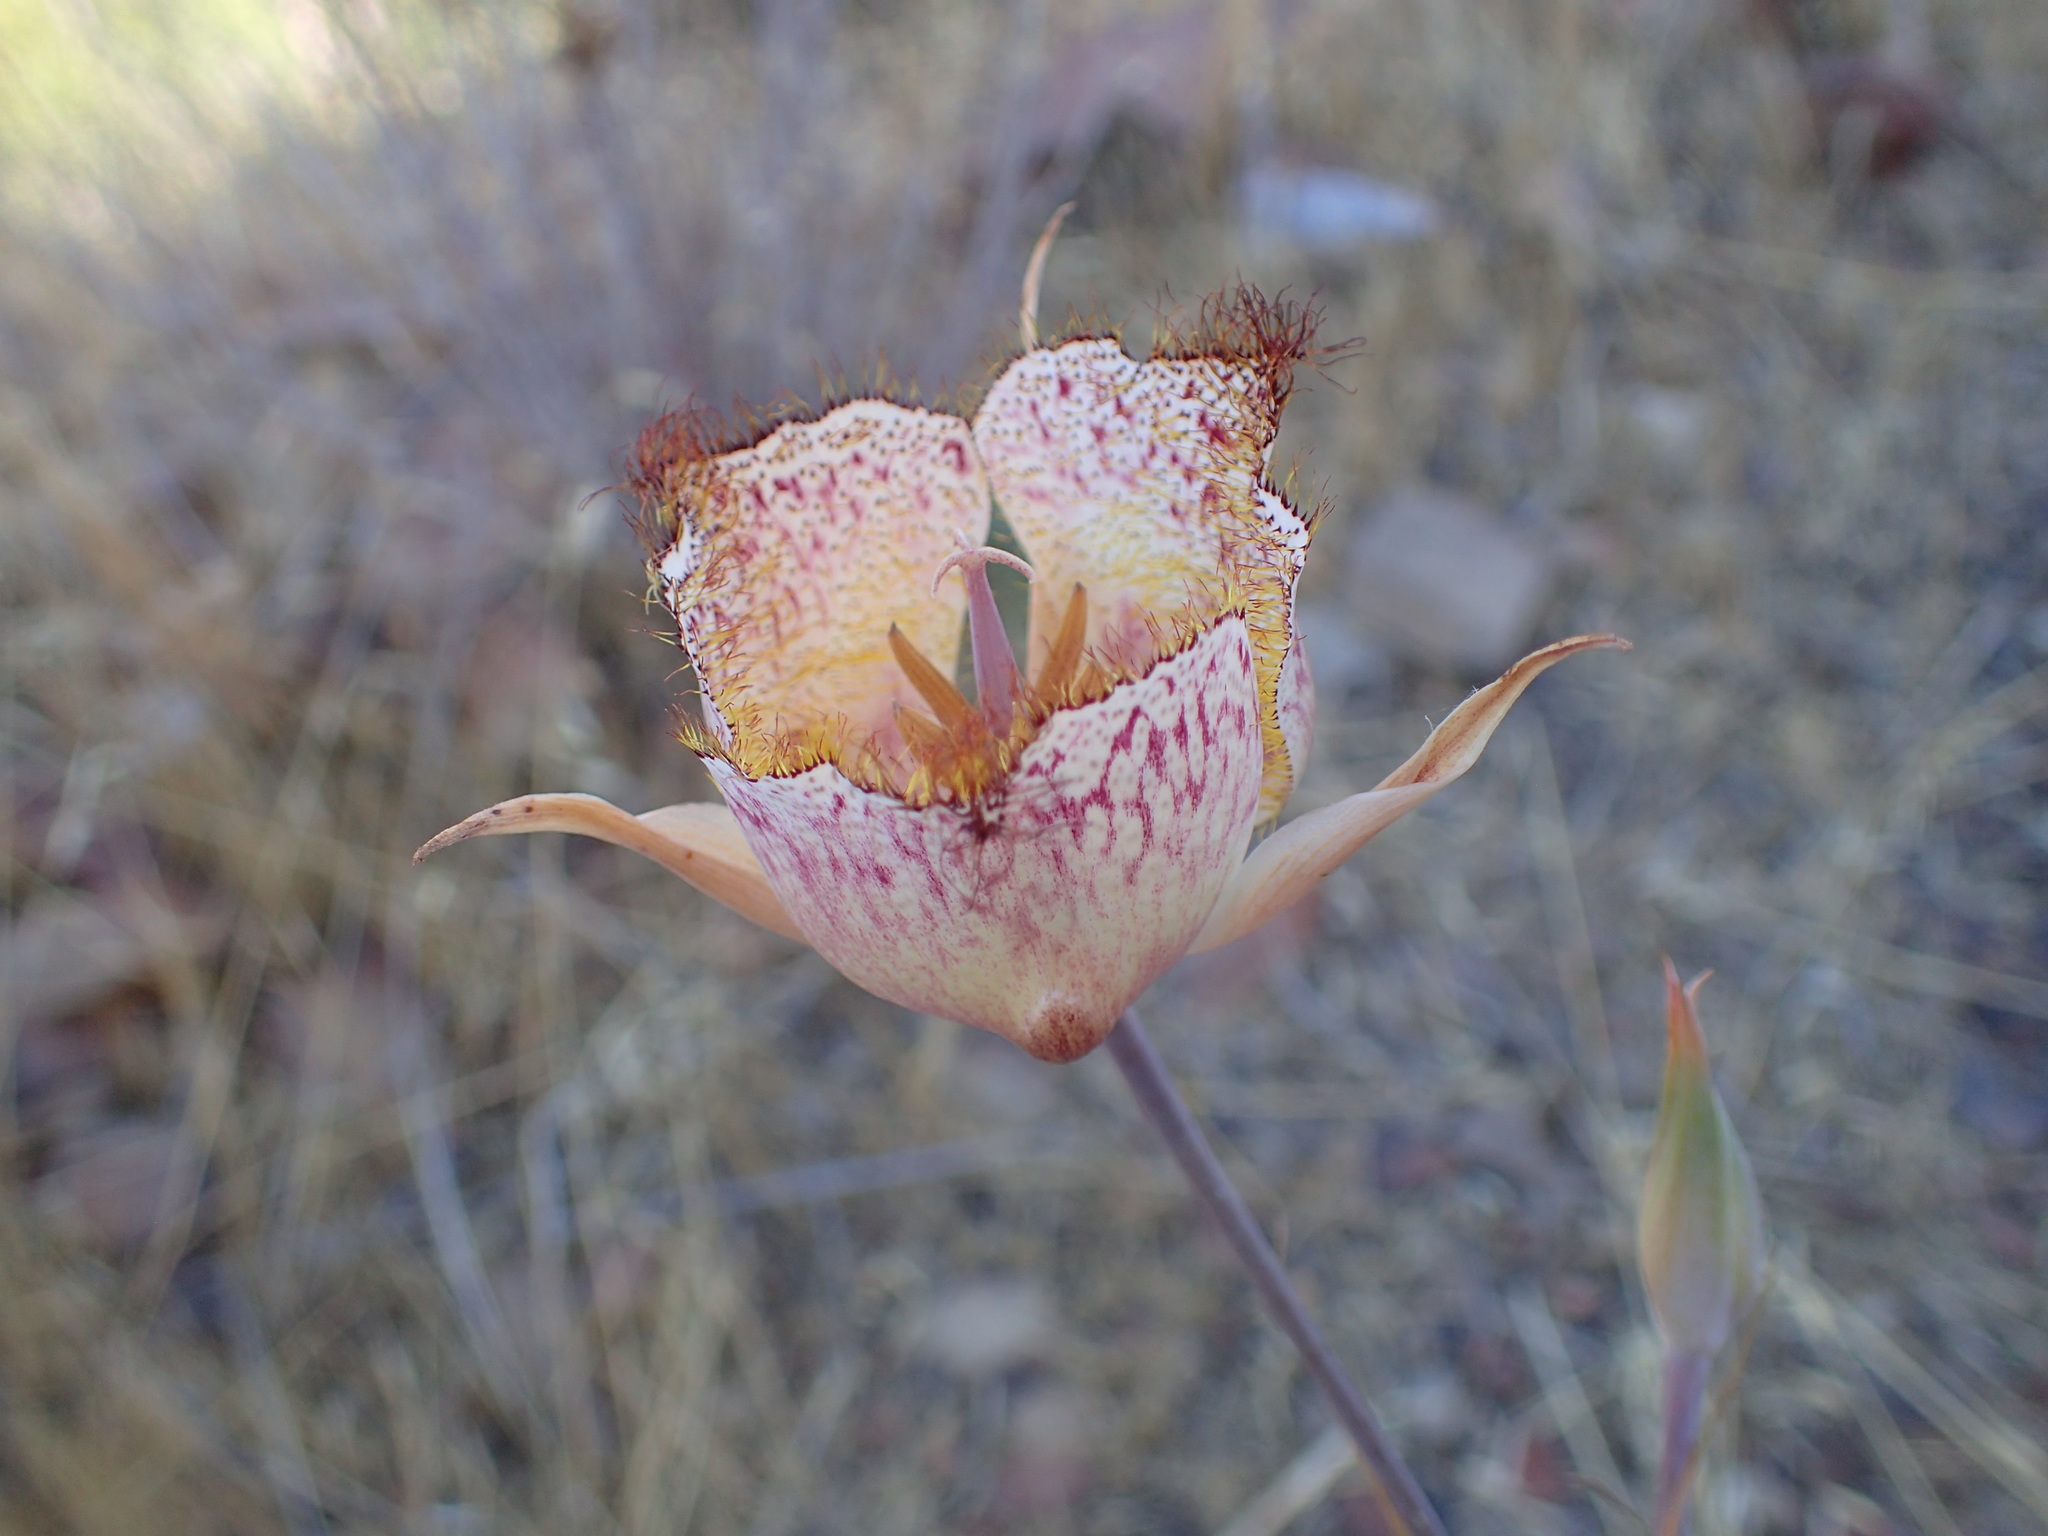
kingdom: Plantae
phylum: Tracheophyta
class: Liliopsida
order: Liliales
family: Liliaceae
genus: Calochortus
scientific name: Calochortus fimbriatus
